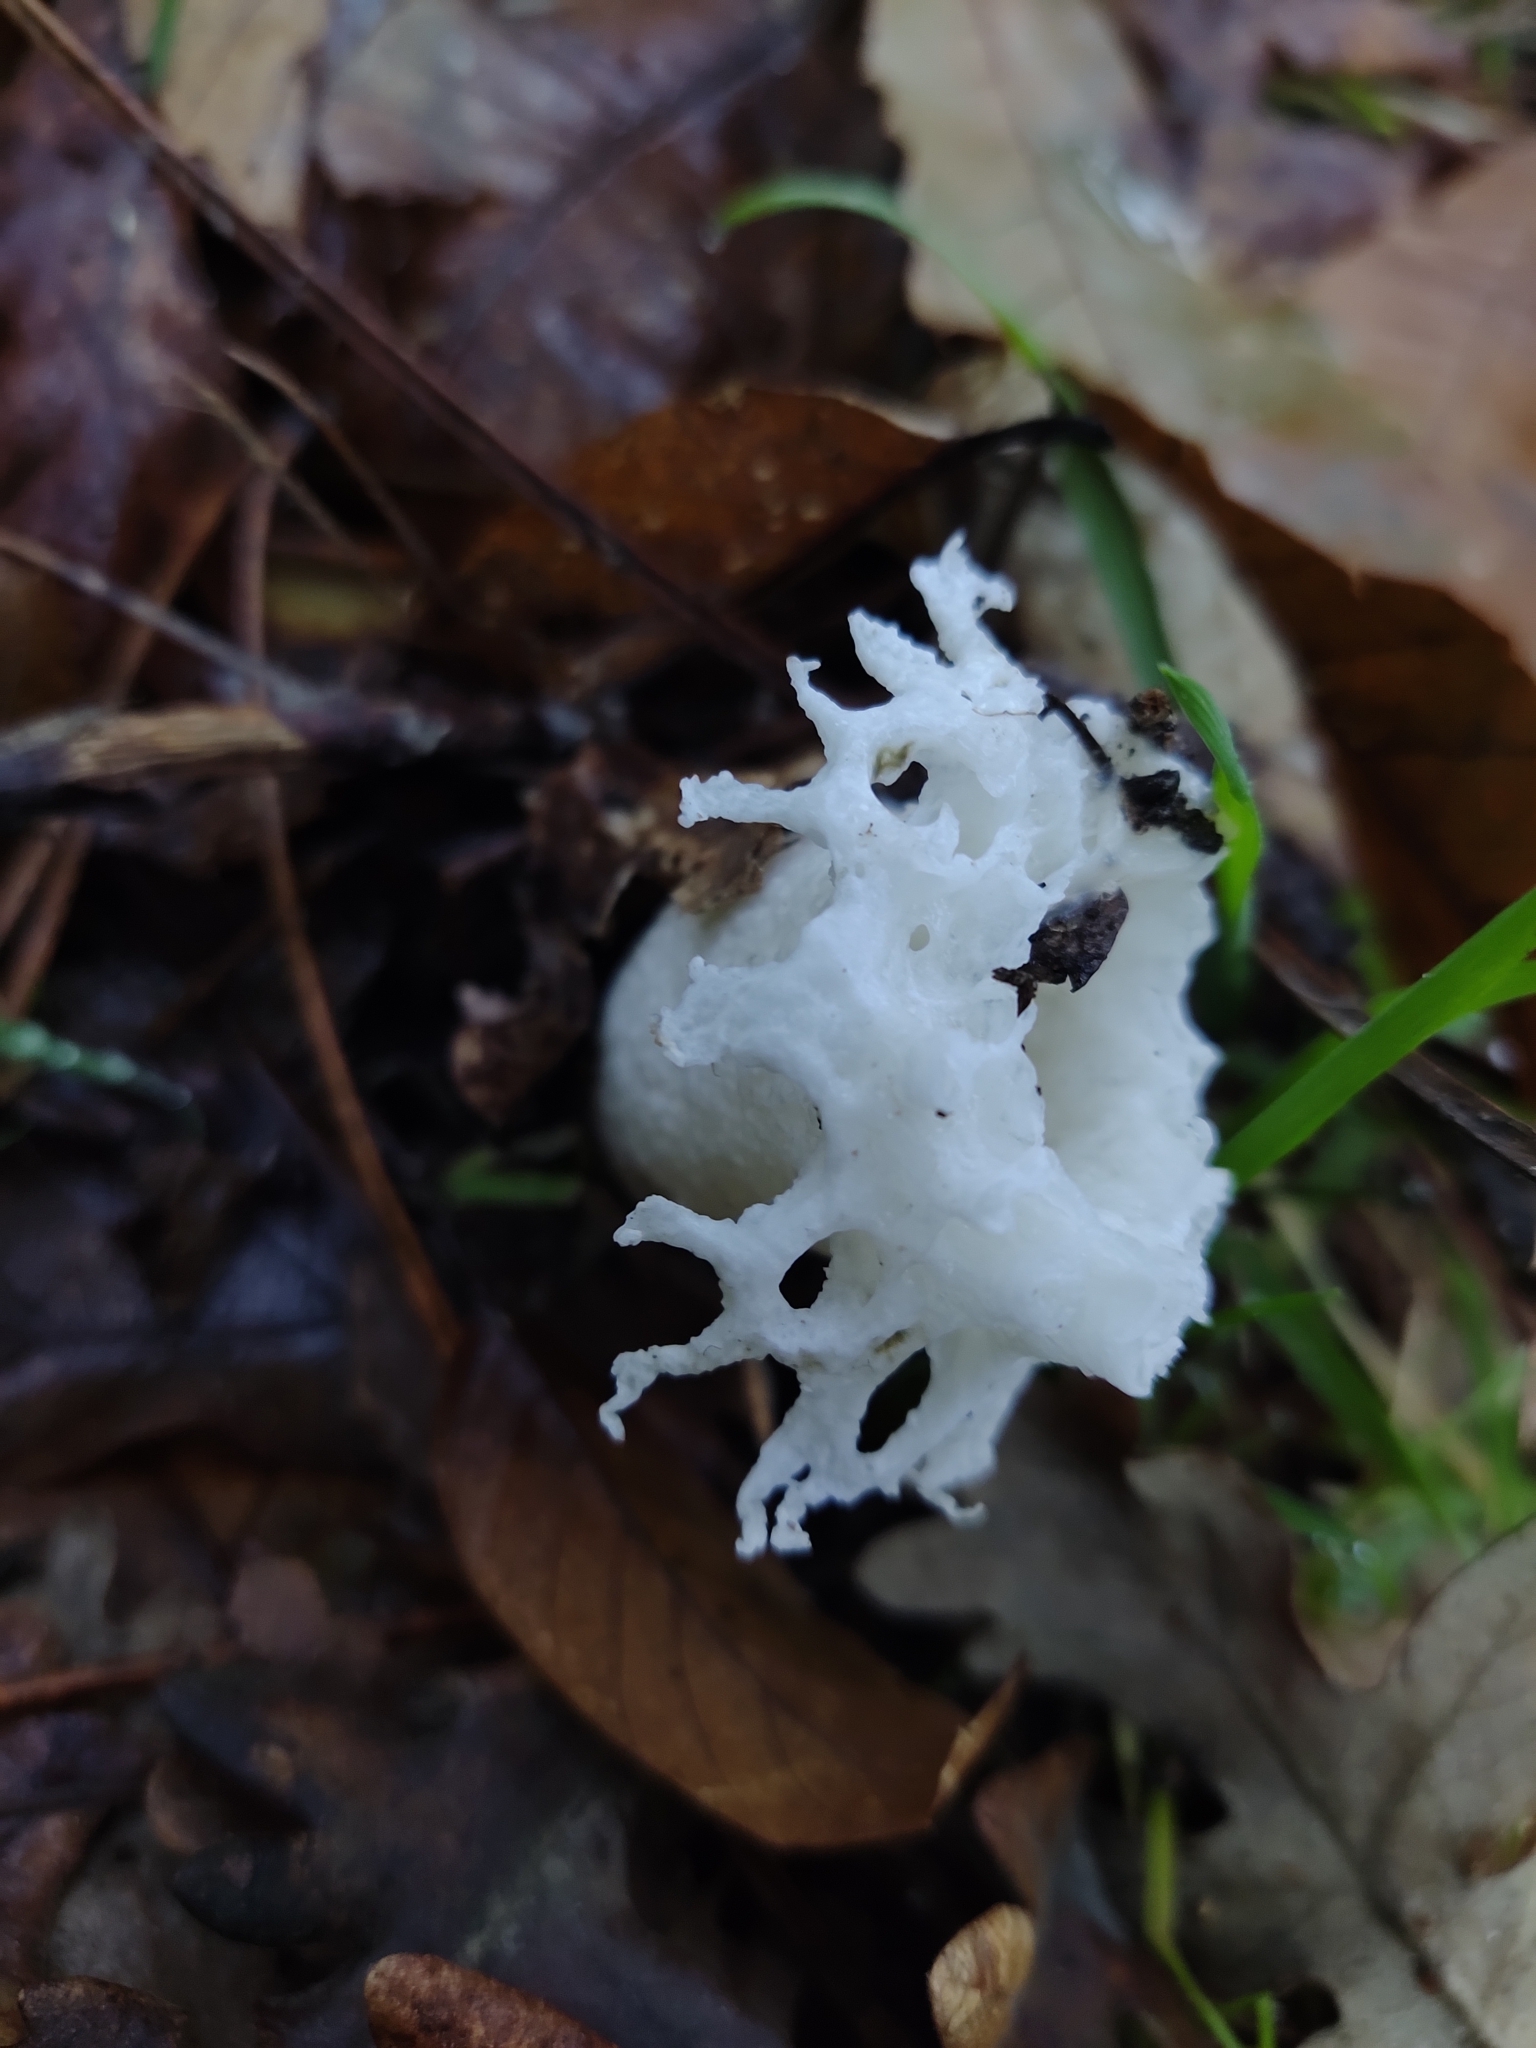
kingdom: Fungi
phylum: Basidiomycota
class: Agaricomycetes
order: Phallales
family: Phallaceae
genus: Phallus
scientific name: Phallus impudicus
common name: Common stinkhorn
